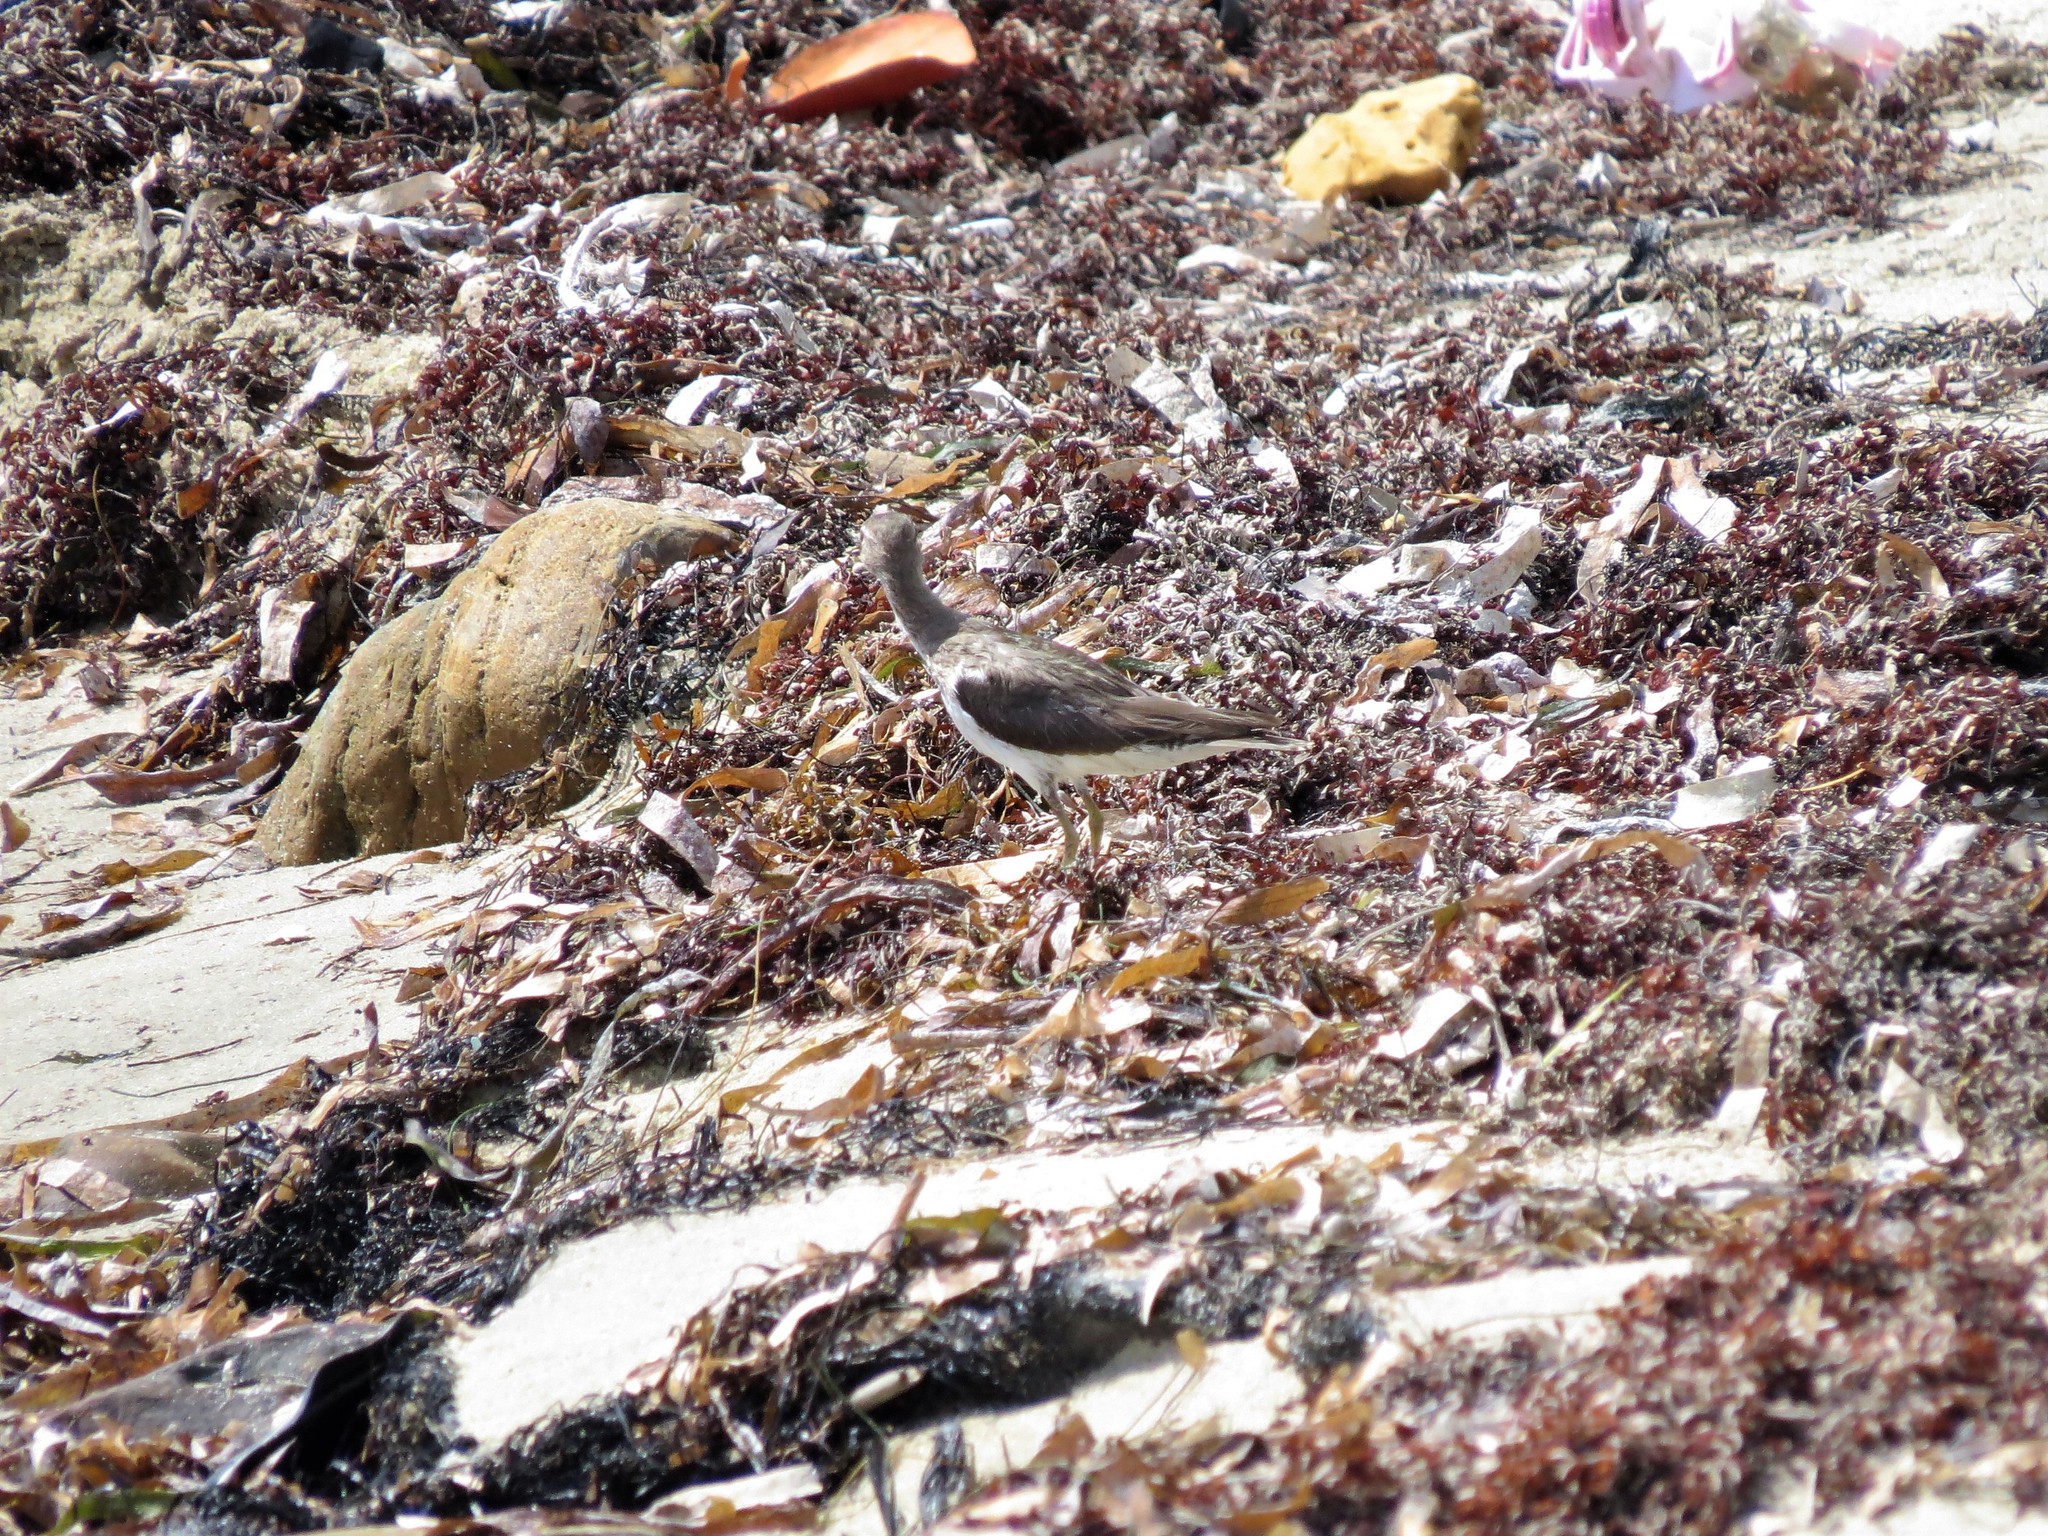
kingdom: Animalia
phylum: Chordata
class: Aves
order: Charadriiformes
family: Scolopacidae
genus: Actitis
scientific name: Actitis macularius
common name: Spotted sandpiper
